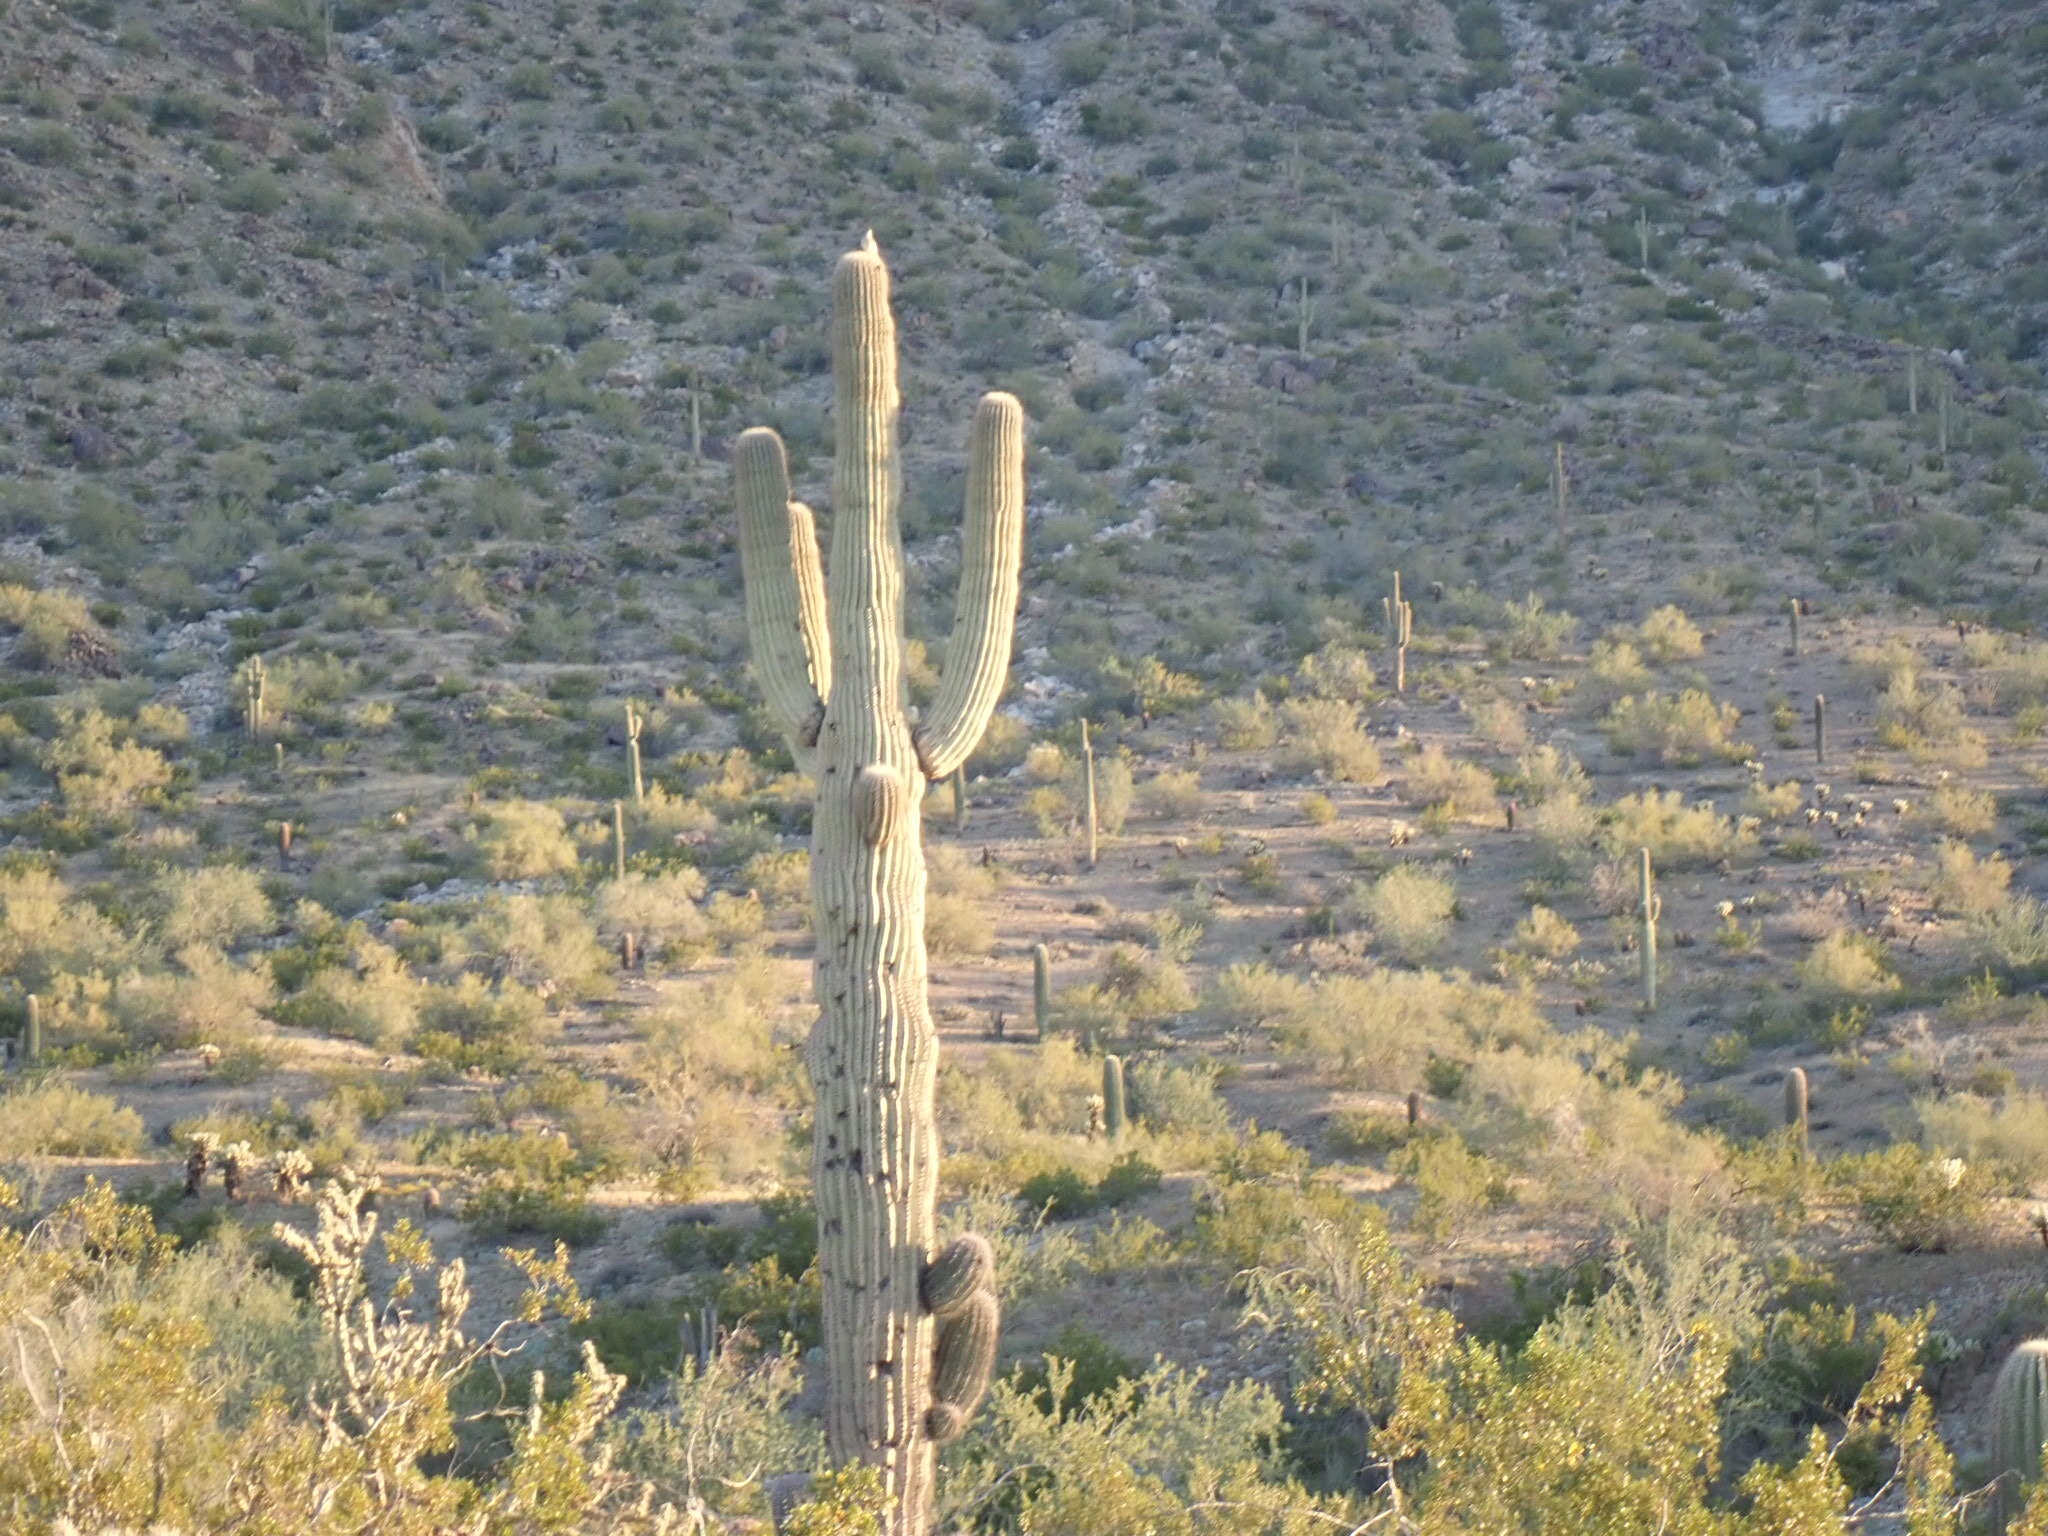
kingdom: Plantae
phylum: Tracheophyta
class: Magnoliopsida
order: Caryophyllales
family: Cactaceae
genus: Carnegiea
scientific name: Carnegiea gigantea
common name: Saguaro
